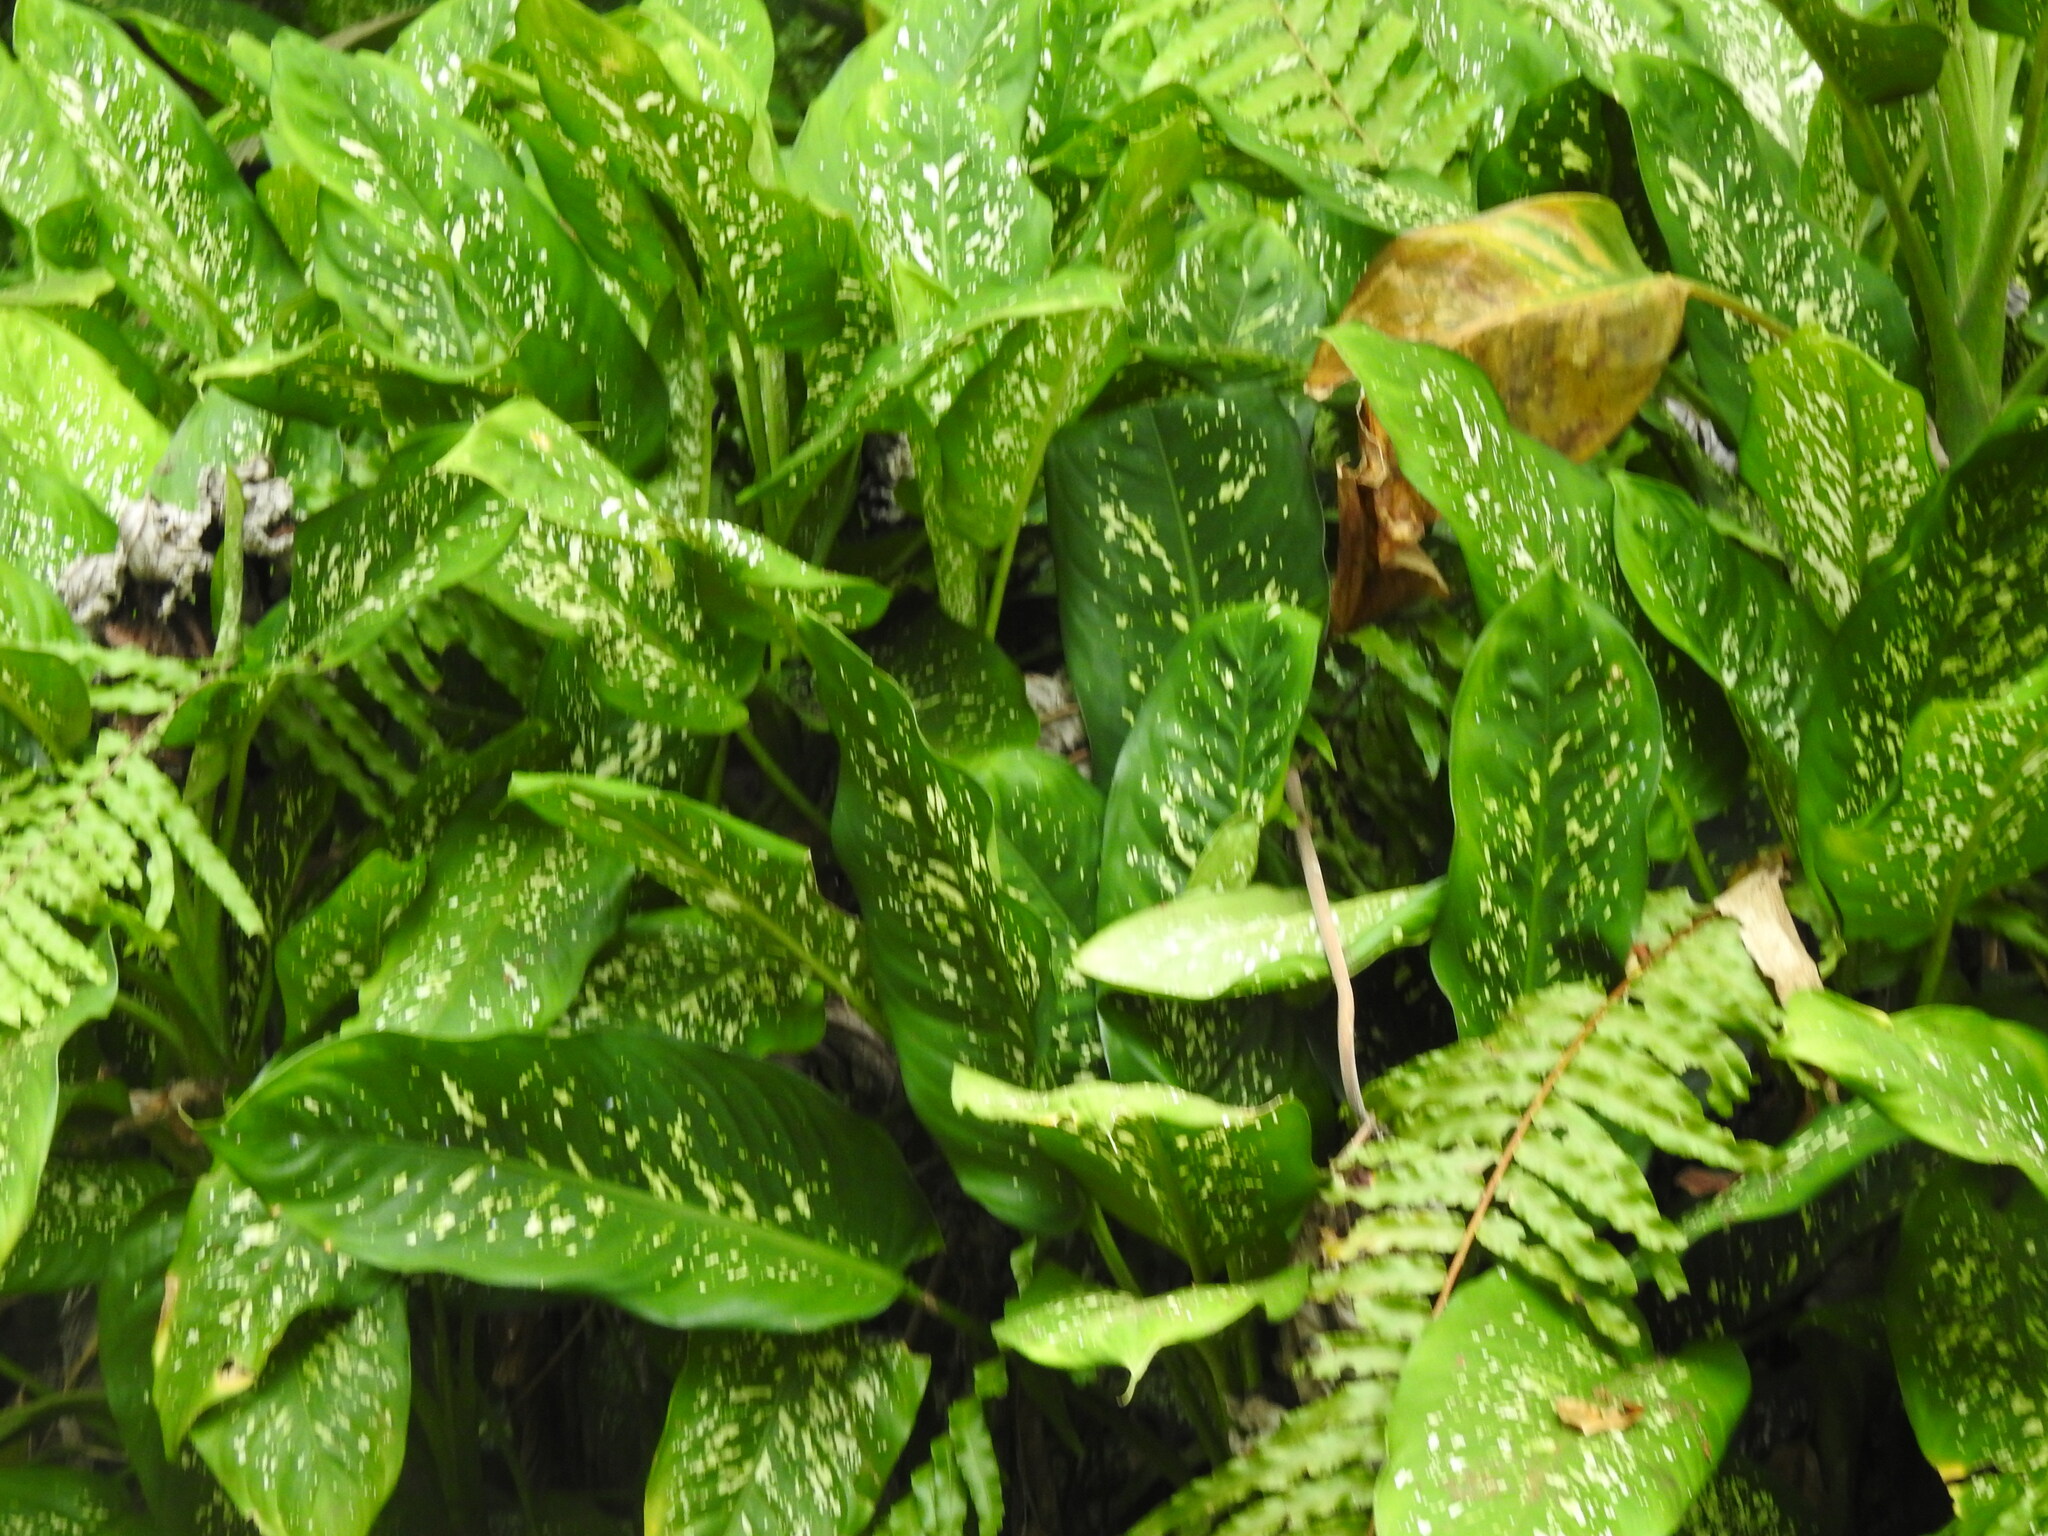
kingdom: Plantae
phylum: Tracheophyta
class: Liliopsida
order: Alismatales
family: Araceae
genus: Dieffenbachia
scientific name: Dieffenbachia seguine
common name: Dumbcane
